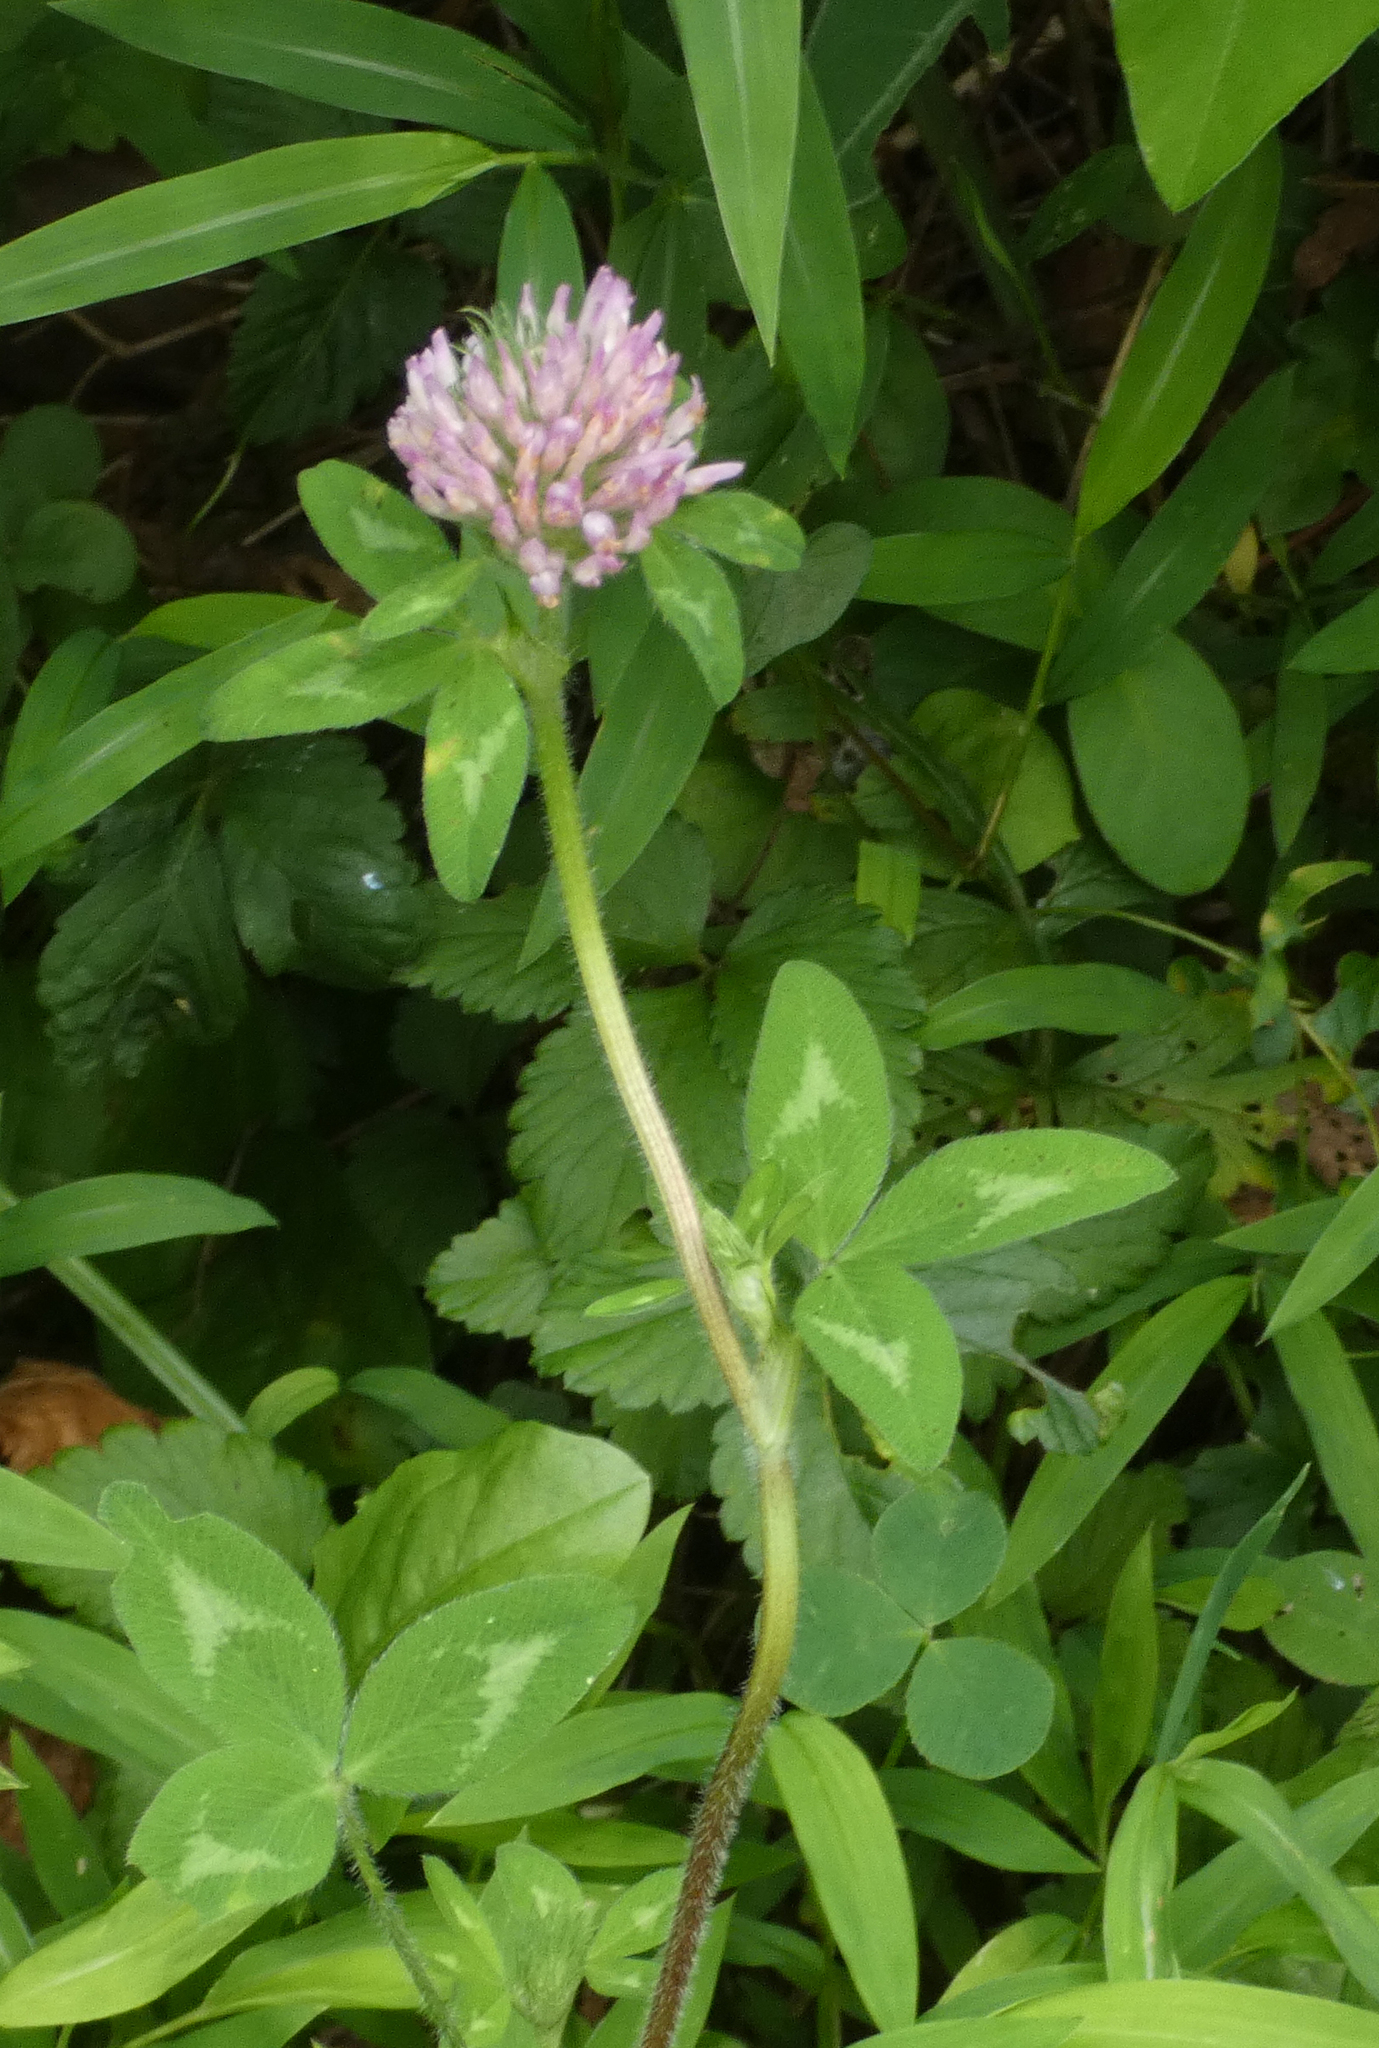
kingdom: Plantae
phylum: Tracheophyta
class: Magnoliopsida
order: Fabales
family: Fabaceae
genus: Trifolium
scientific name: Trifolium pratense
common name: Red clover
